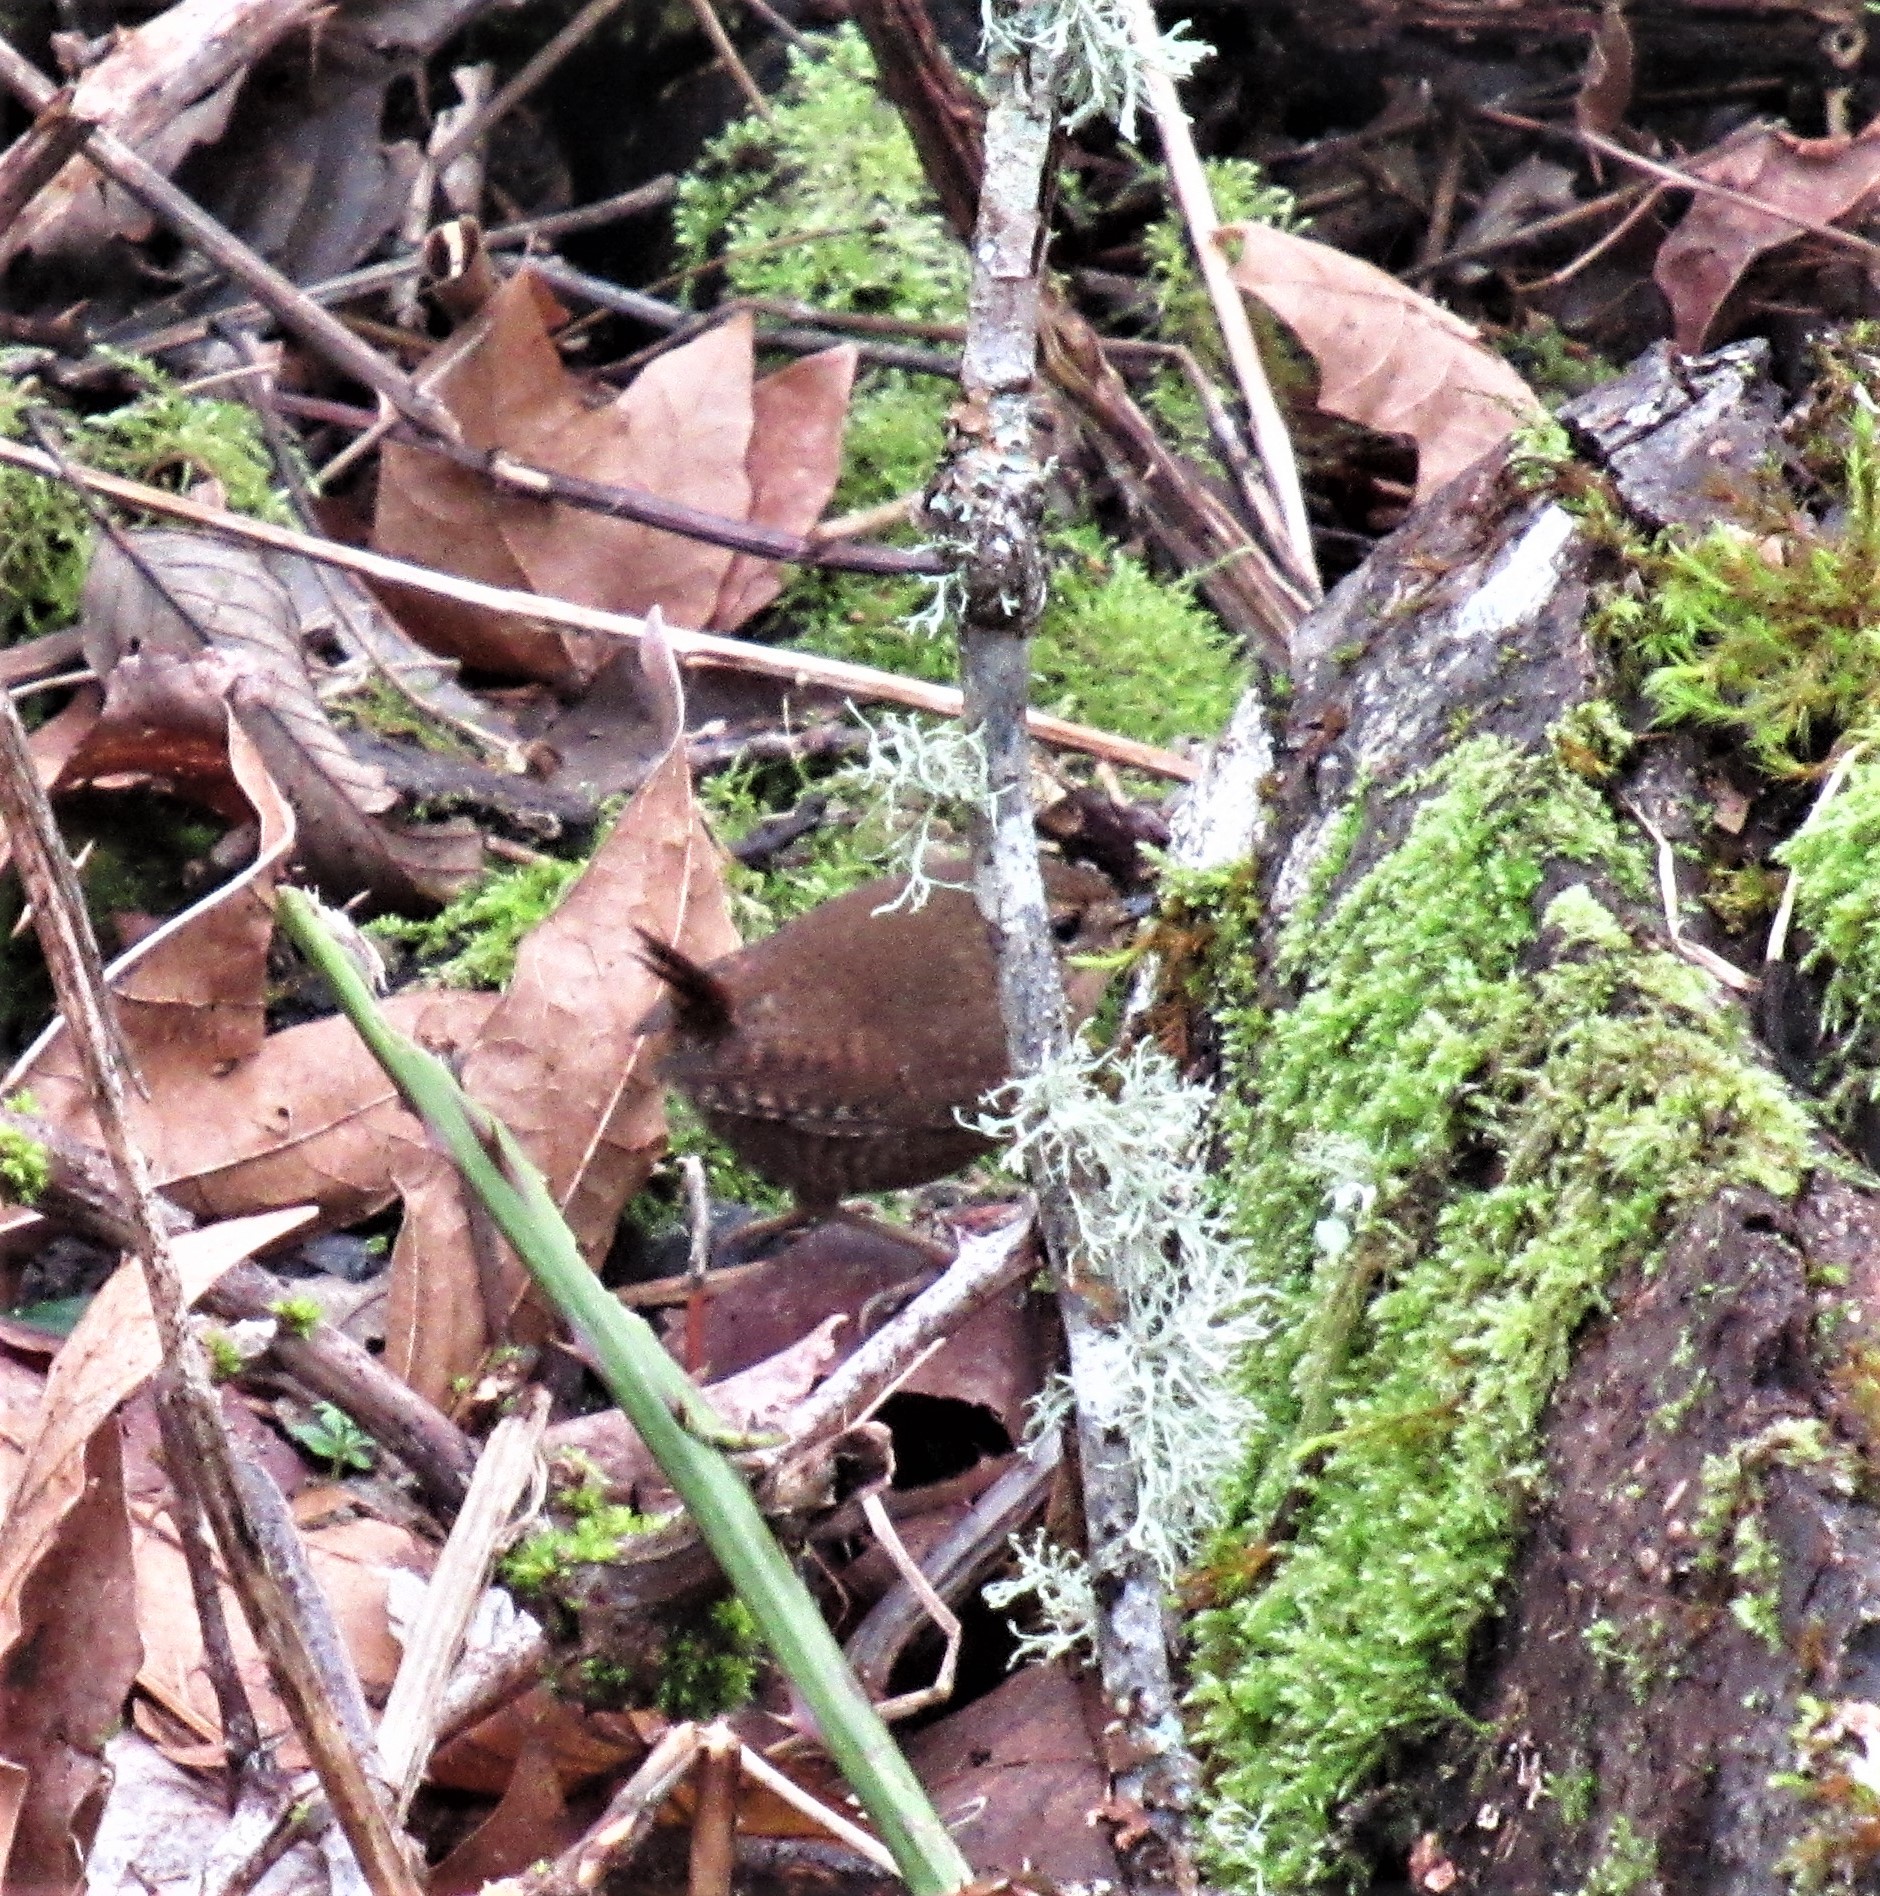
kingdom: Animalia
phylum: Chordata
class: Aves
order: Passeriformes
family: Troglodytidae
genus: Troglodytes
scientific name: Troglodytes pacificus
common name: Pacific wren
